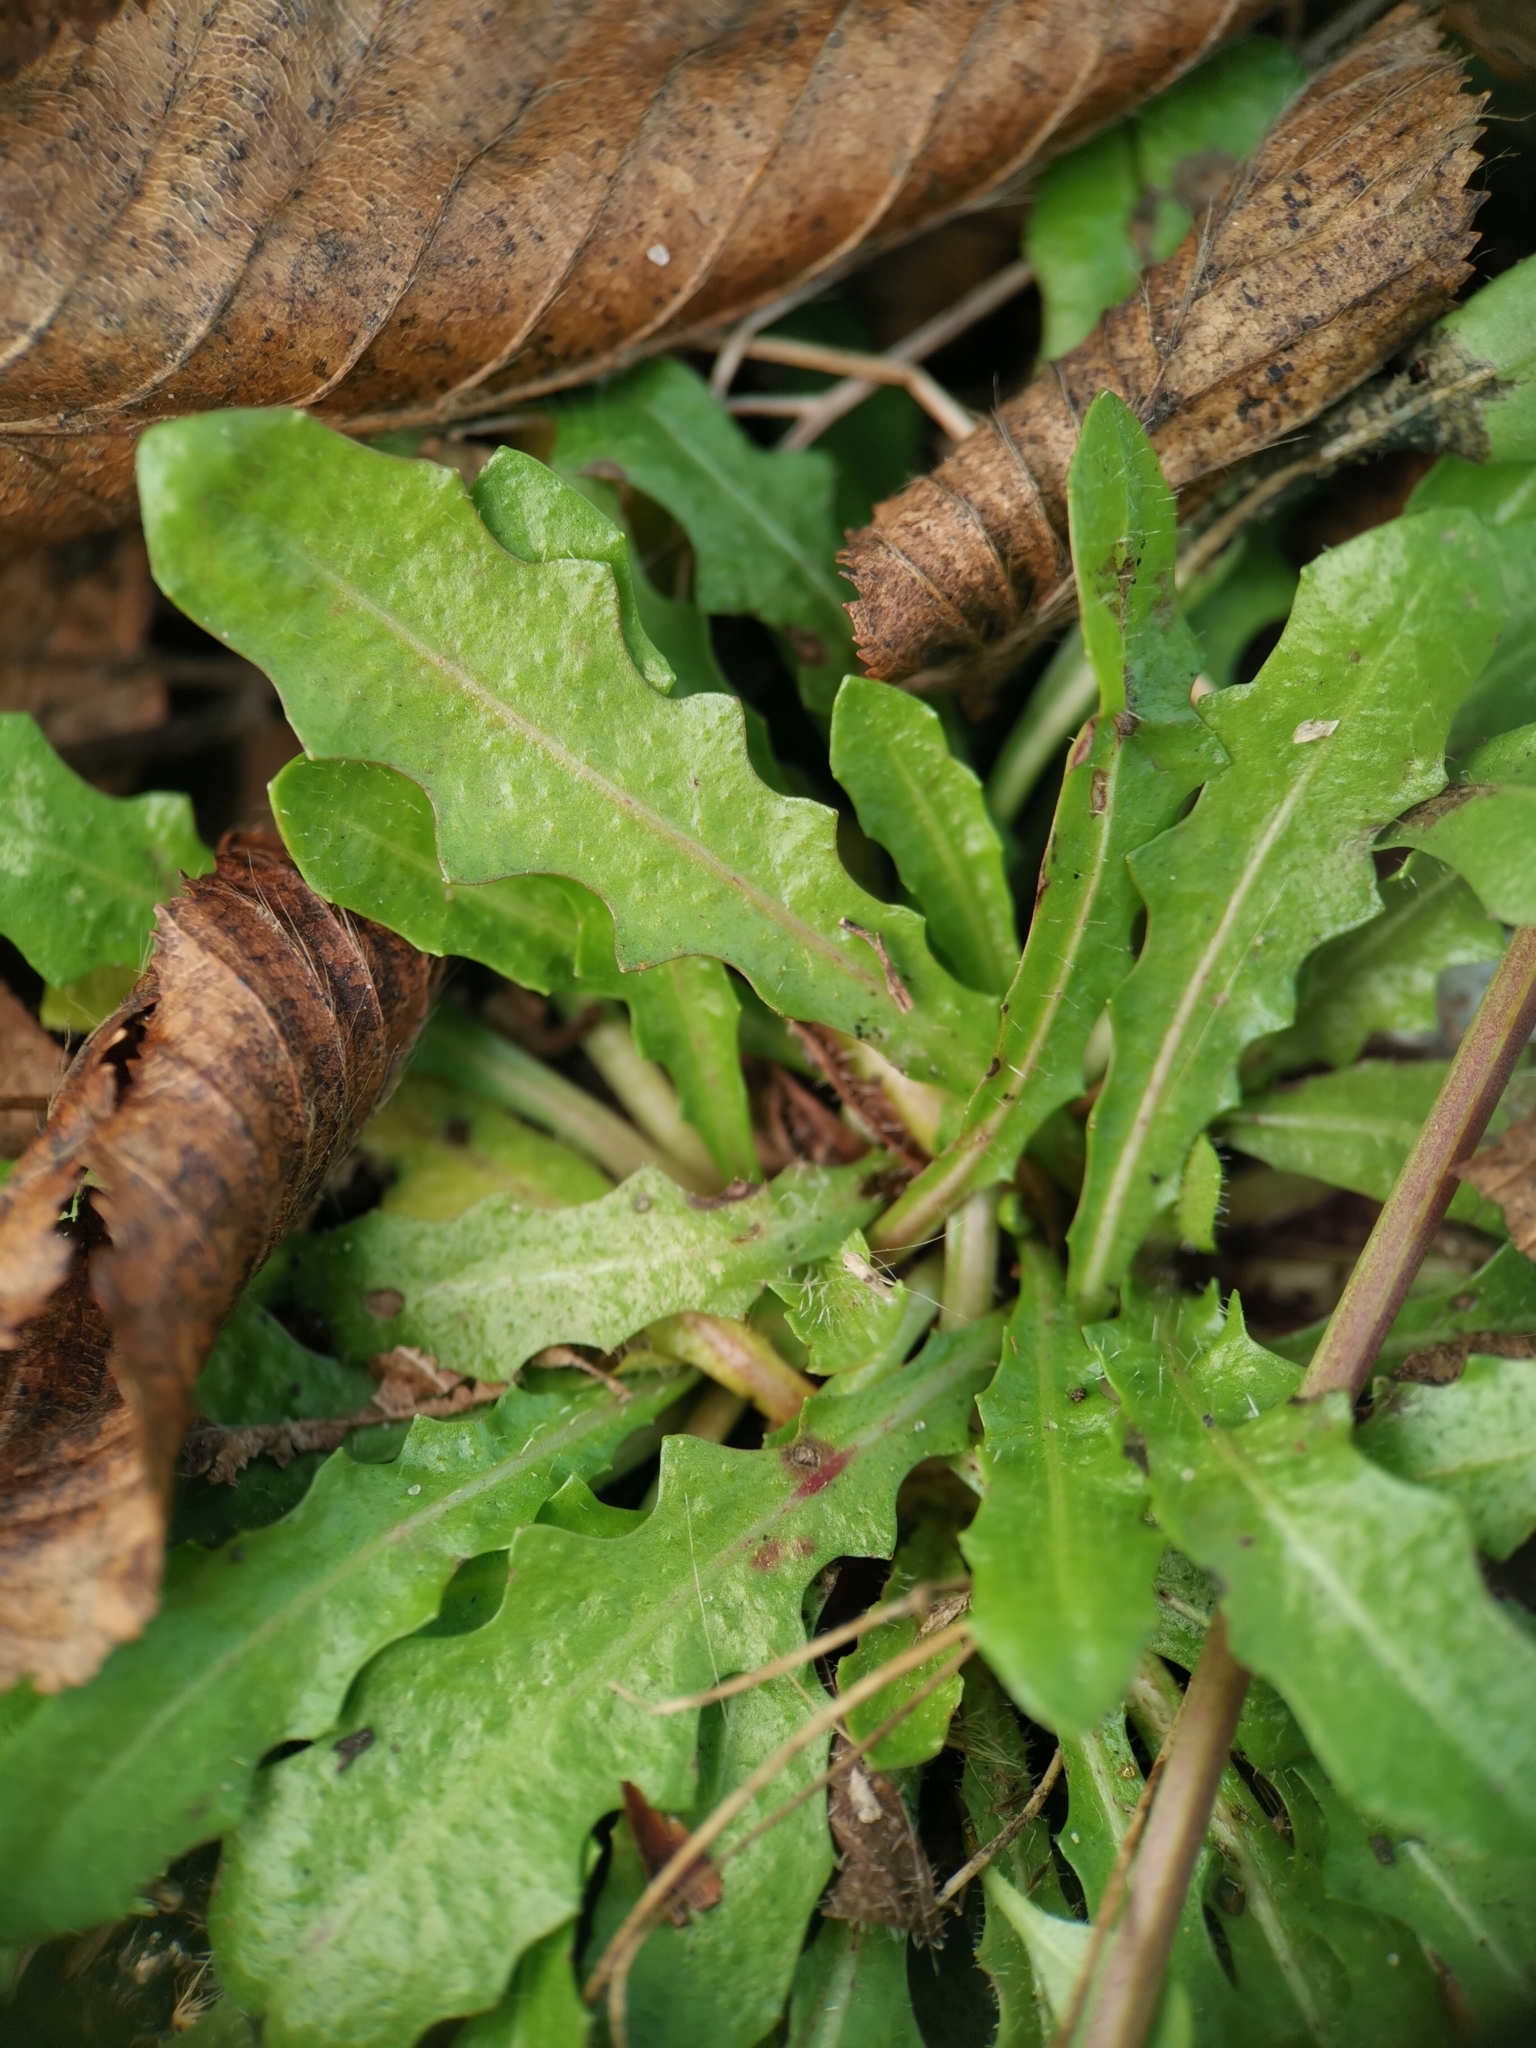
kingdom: Plantae
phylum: Tracheophyta
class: Magnoliopsida
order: Asterales
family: Asteraceae
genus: Hypochaeris
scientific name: Hypochaeris radicata
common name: Flatweed
